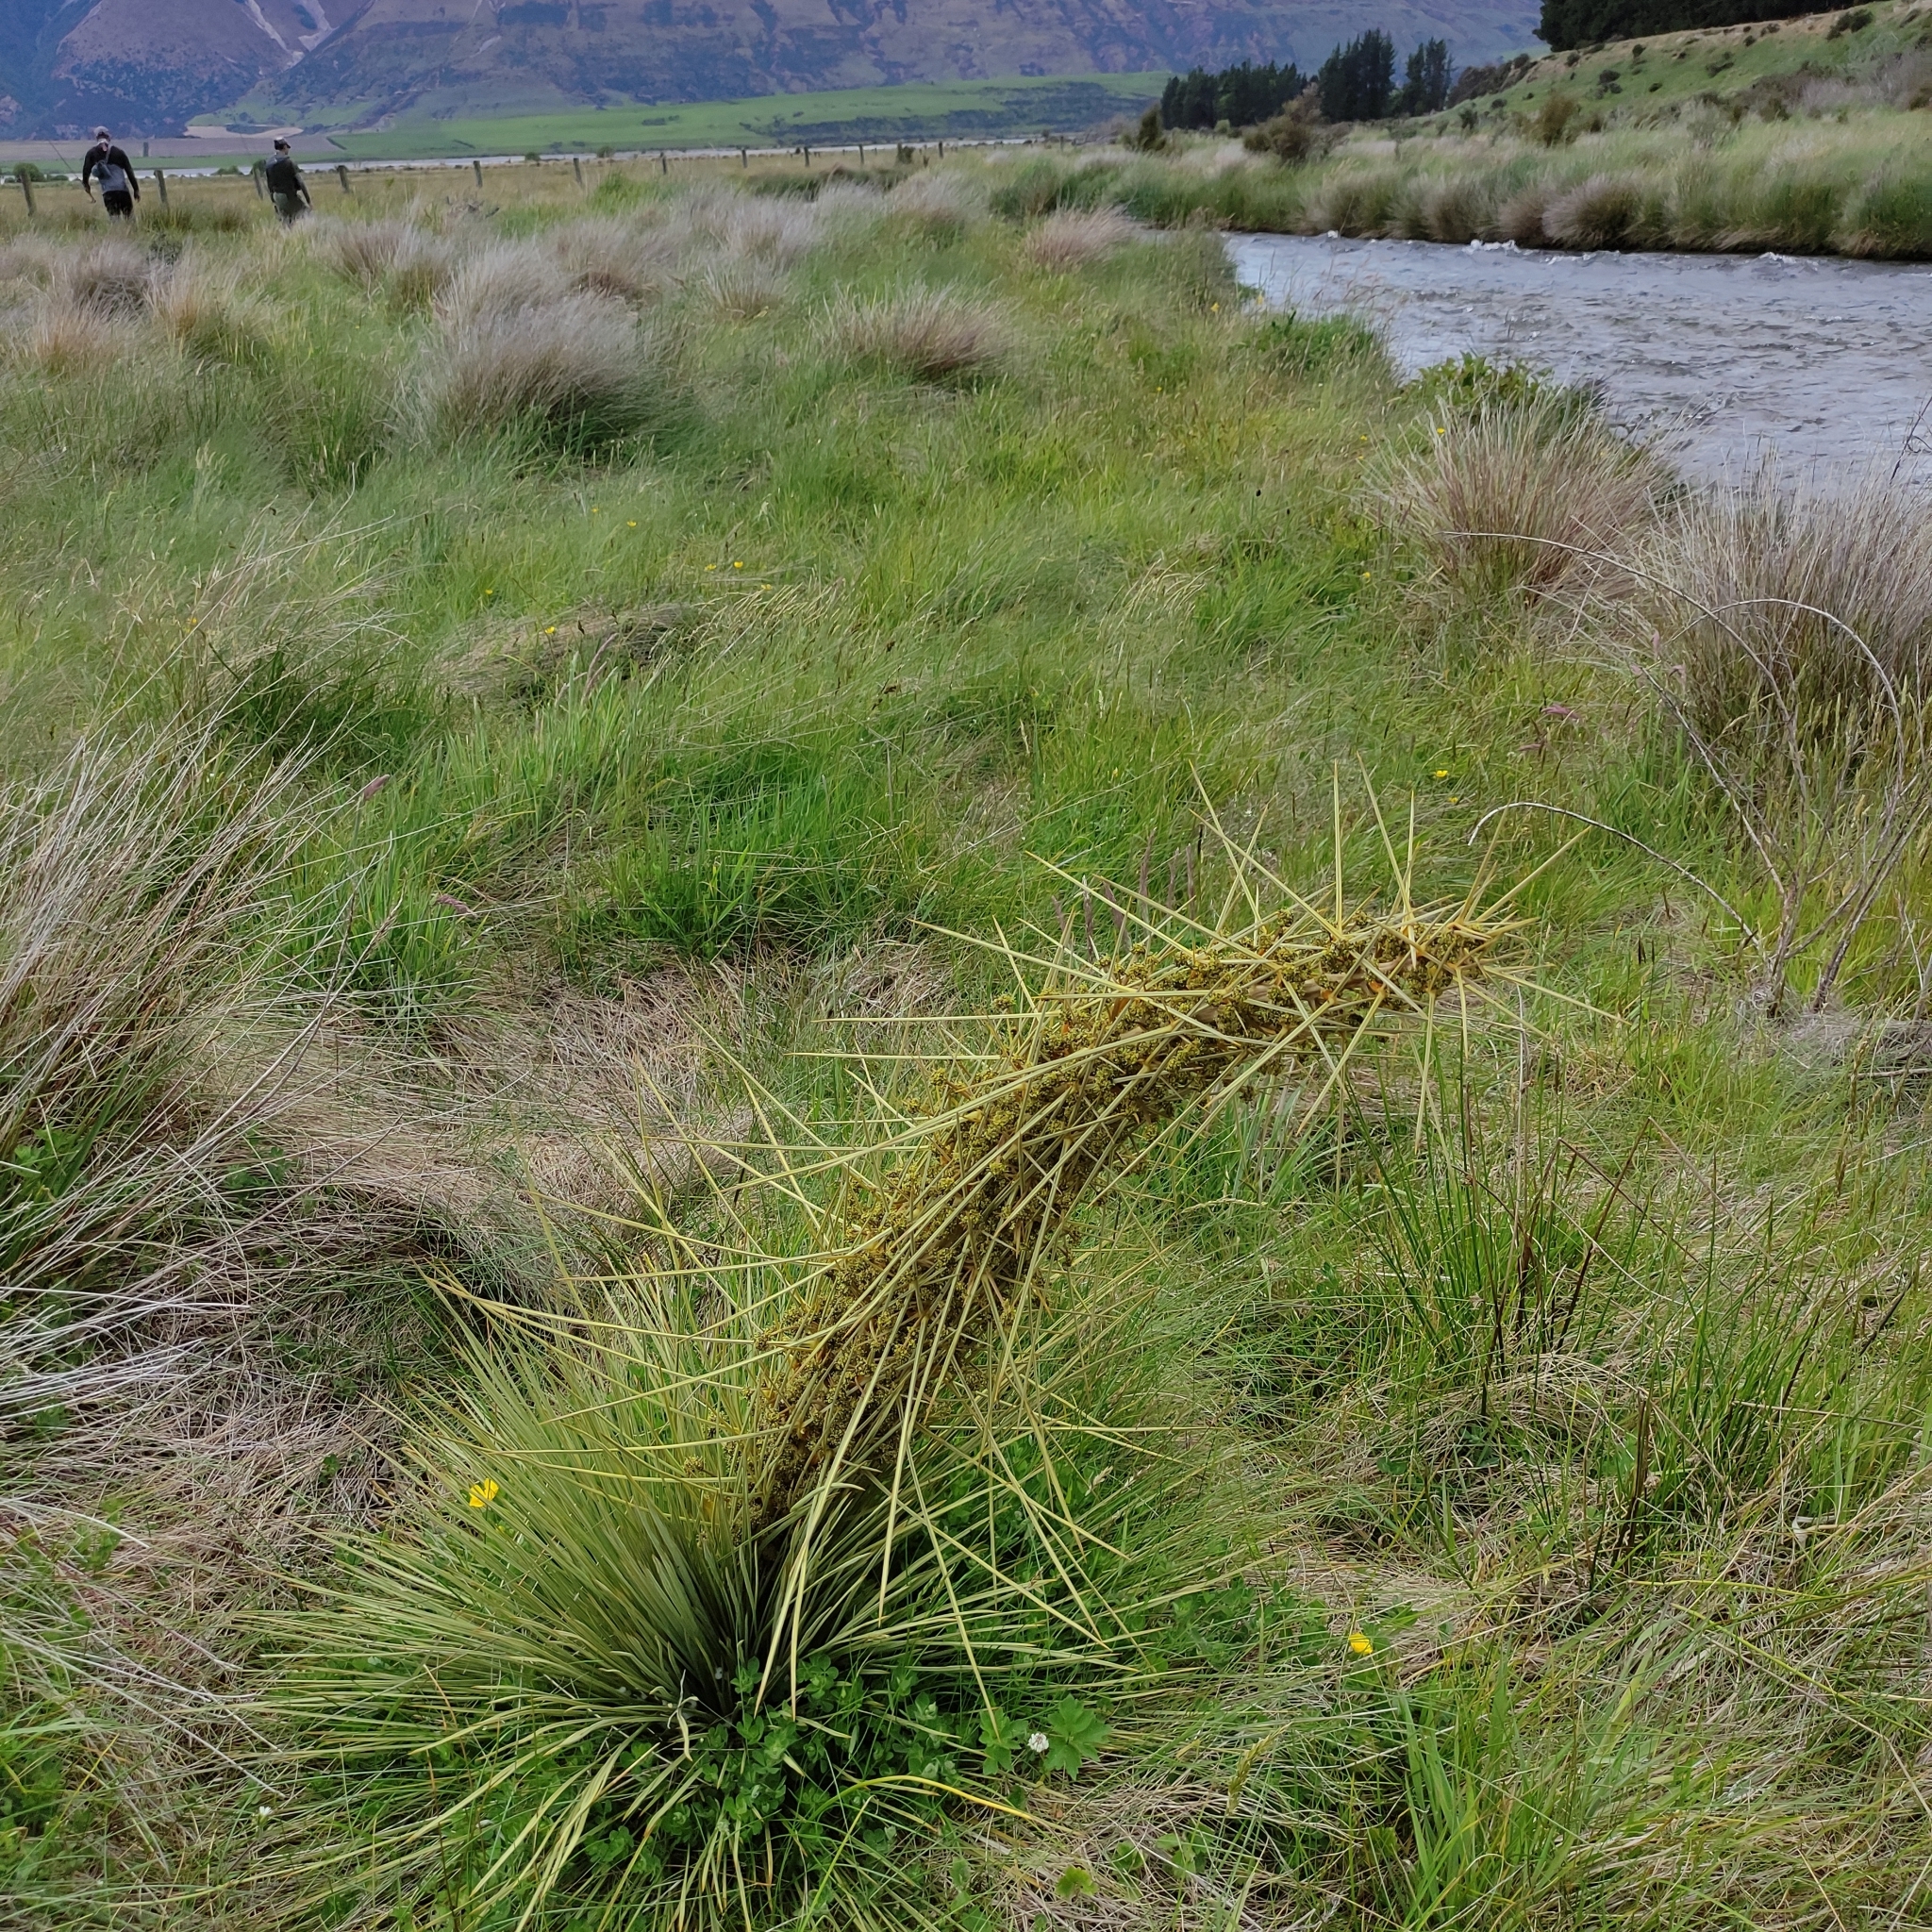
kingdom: Plantae
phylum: Tracheophyta
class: Magnoliopsida
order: Apiales
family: Apiaceae
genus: Aciphylla
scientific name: Aciphylla subflabellata
